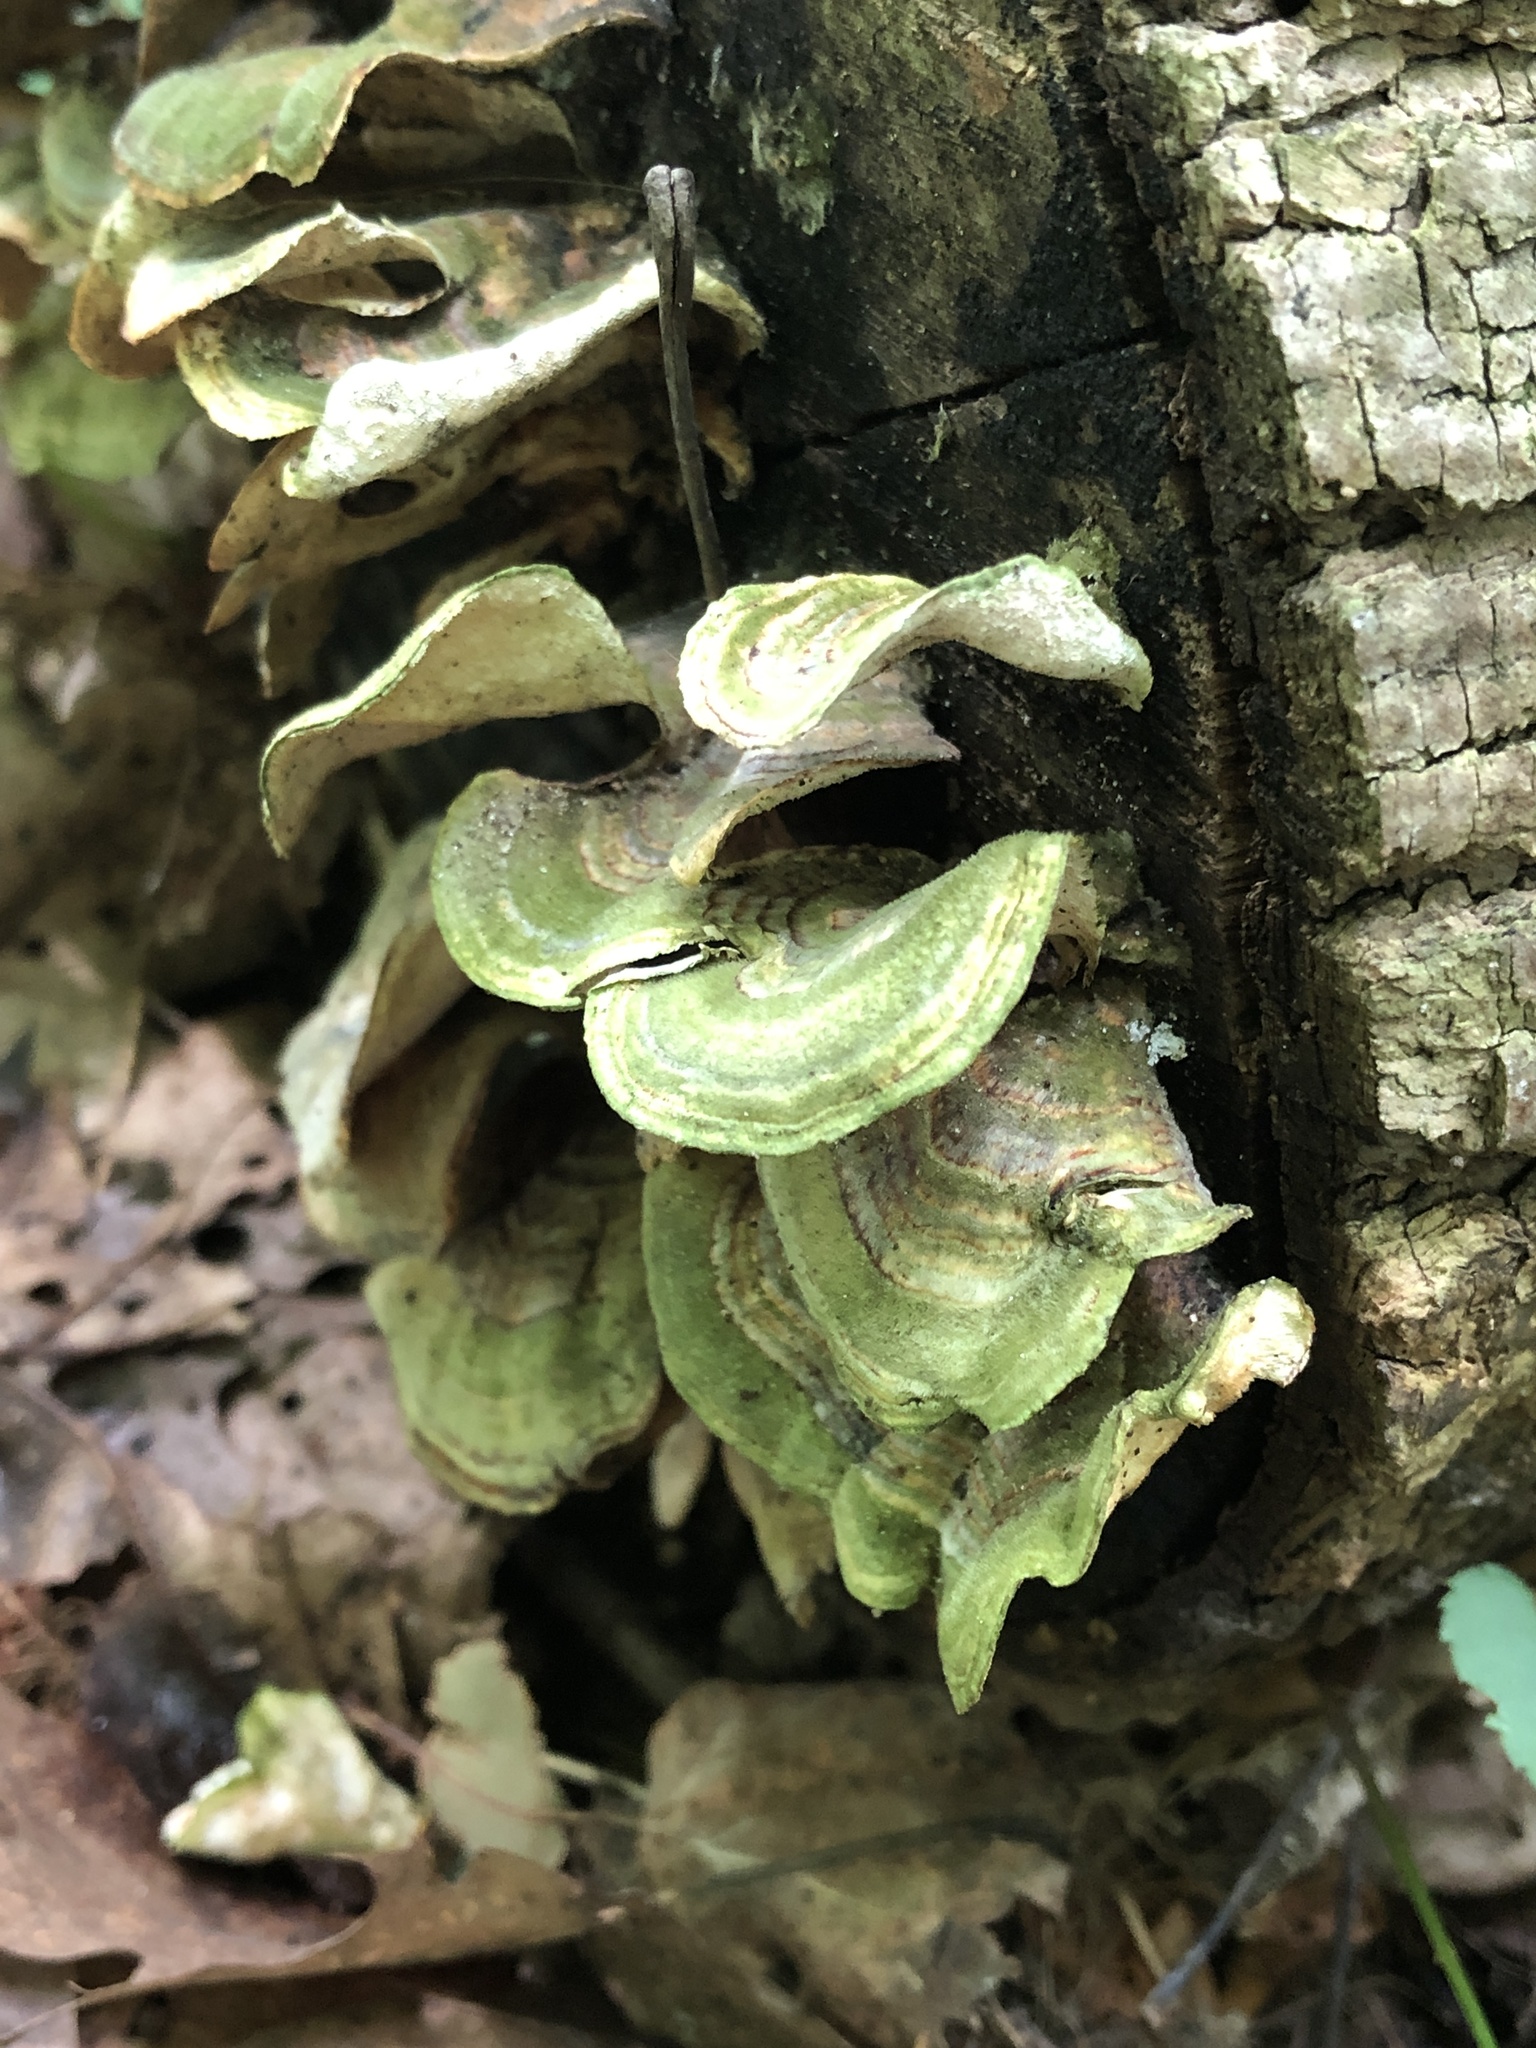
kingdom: Fungi
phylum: Basidiomycota
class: Agaricomycetes
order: Polyporales
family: Polyporaceae
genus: Trametes
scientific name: Trametes versicolor
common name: Turkeytail
